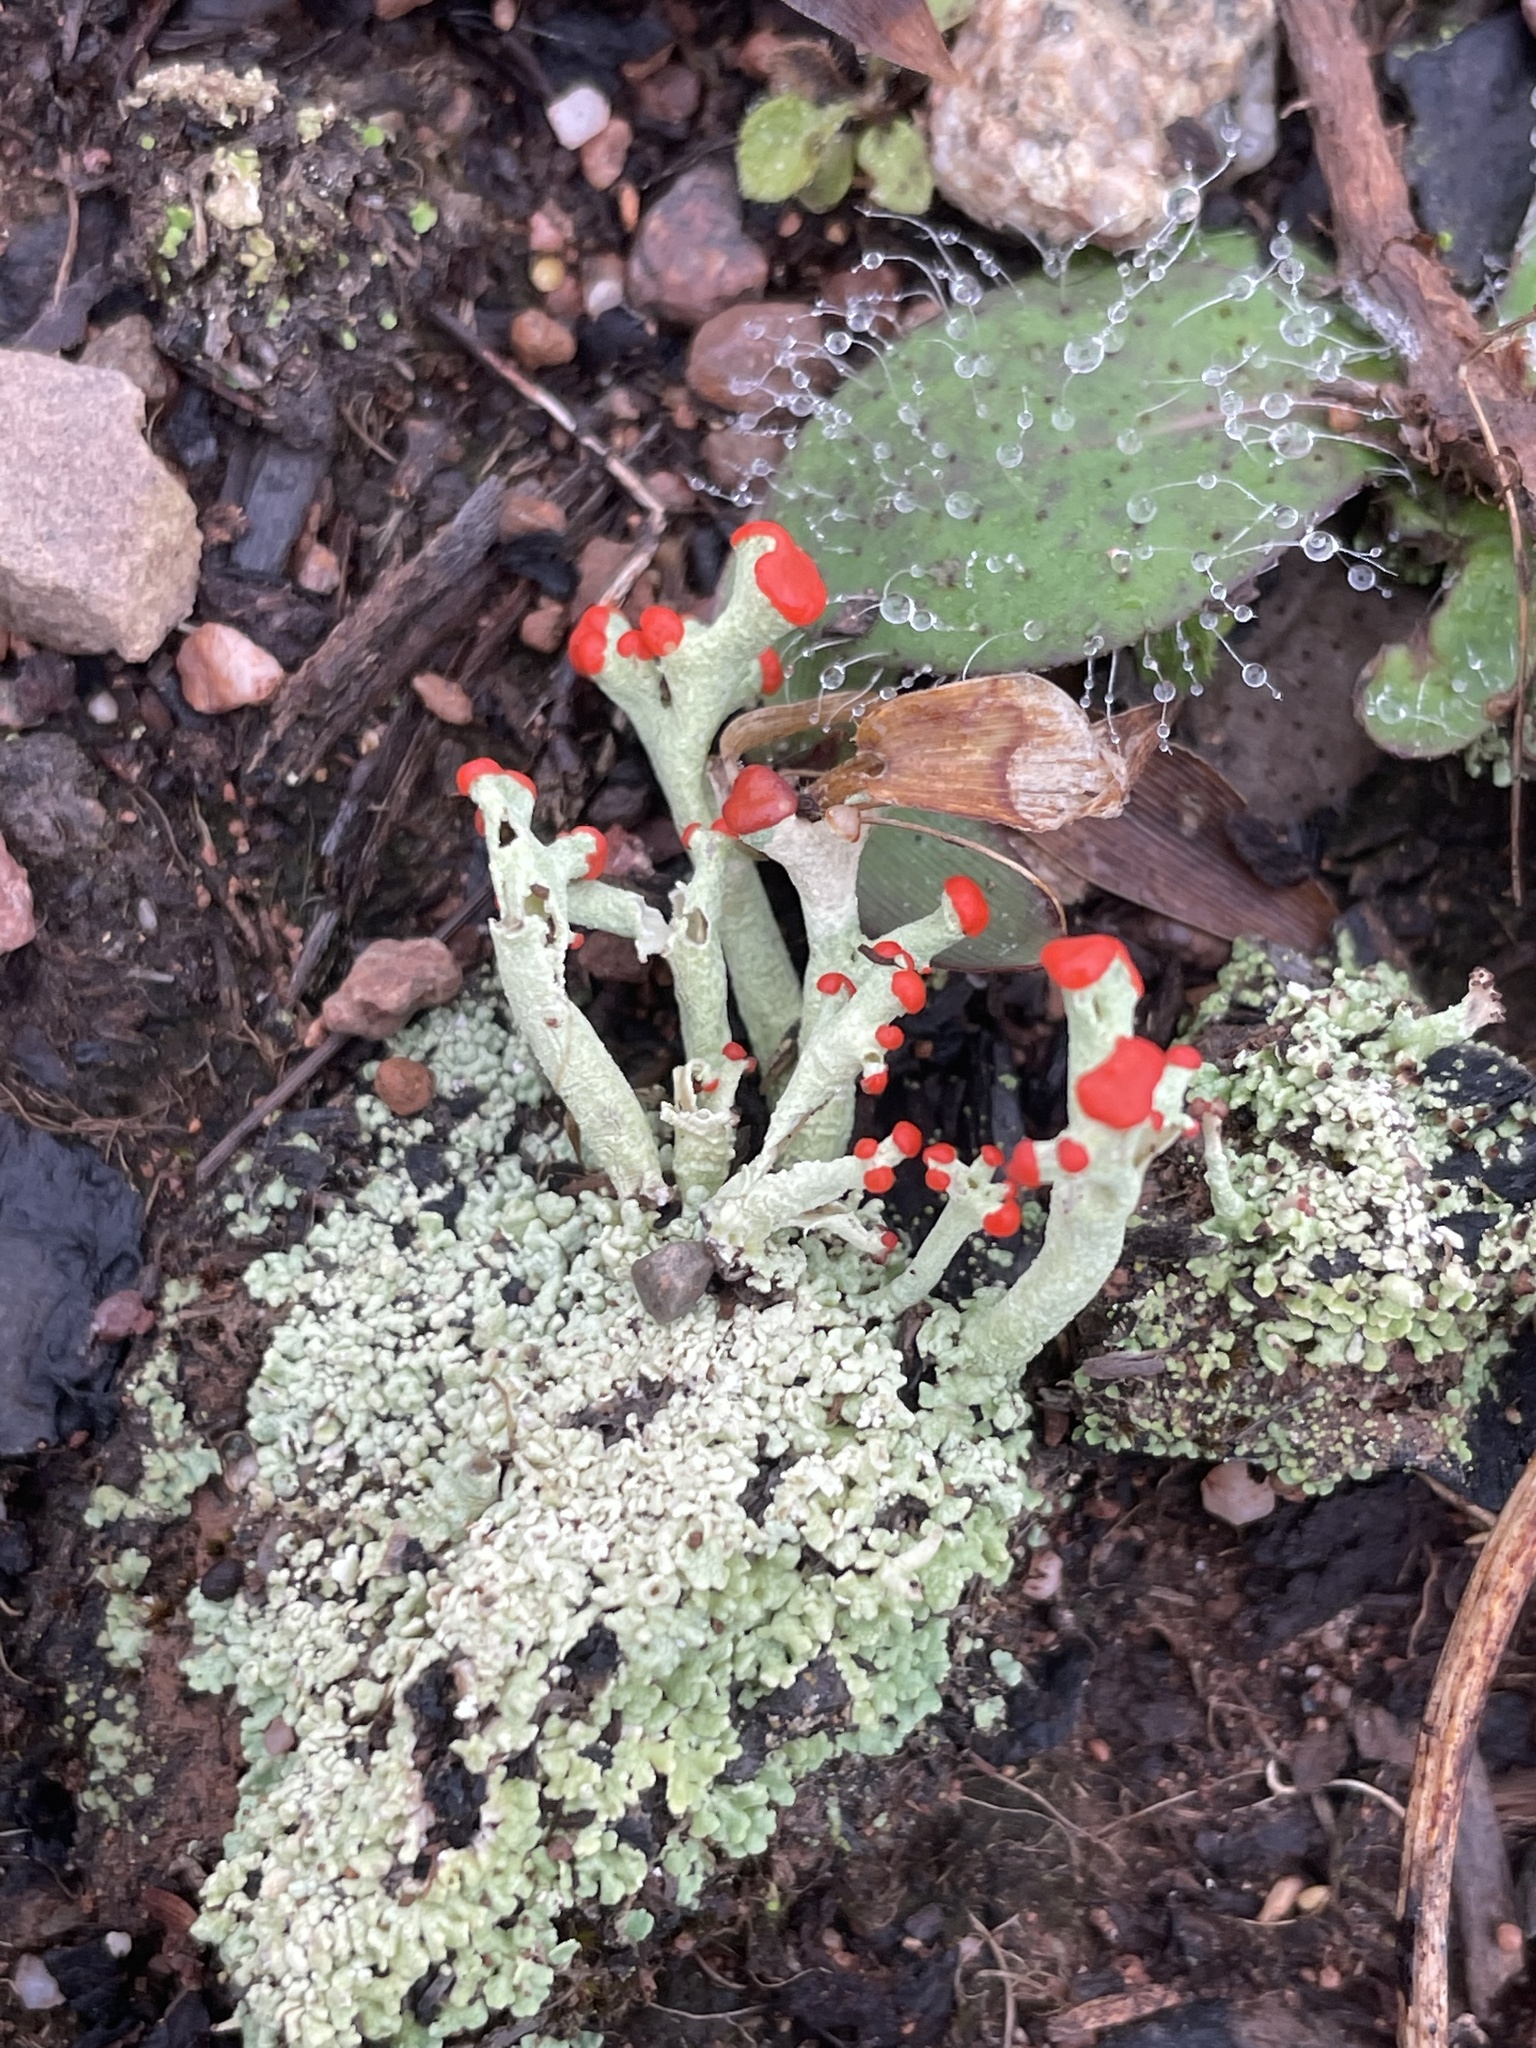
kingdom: Fungi
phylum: Ascomycota
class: Lecanoromycetes
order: Lecanorales
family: Cladoniaceae
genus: Cladonia
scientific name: Cladonia cristatella
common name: British soldier lichen
